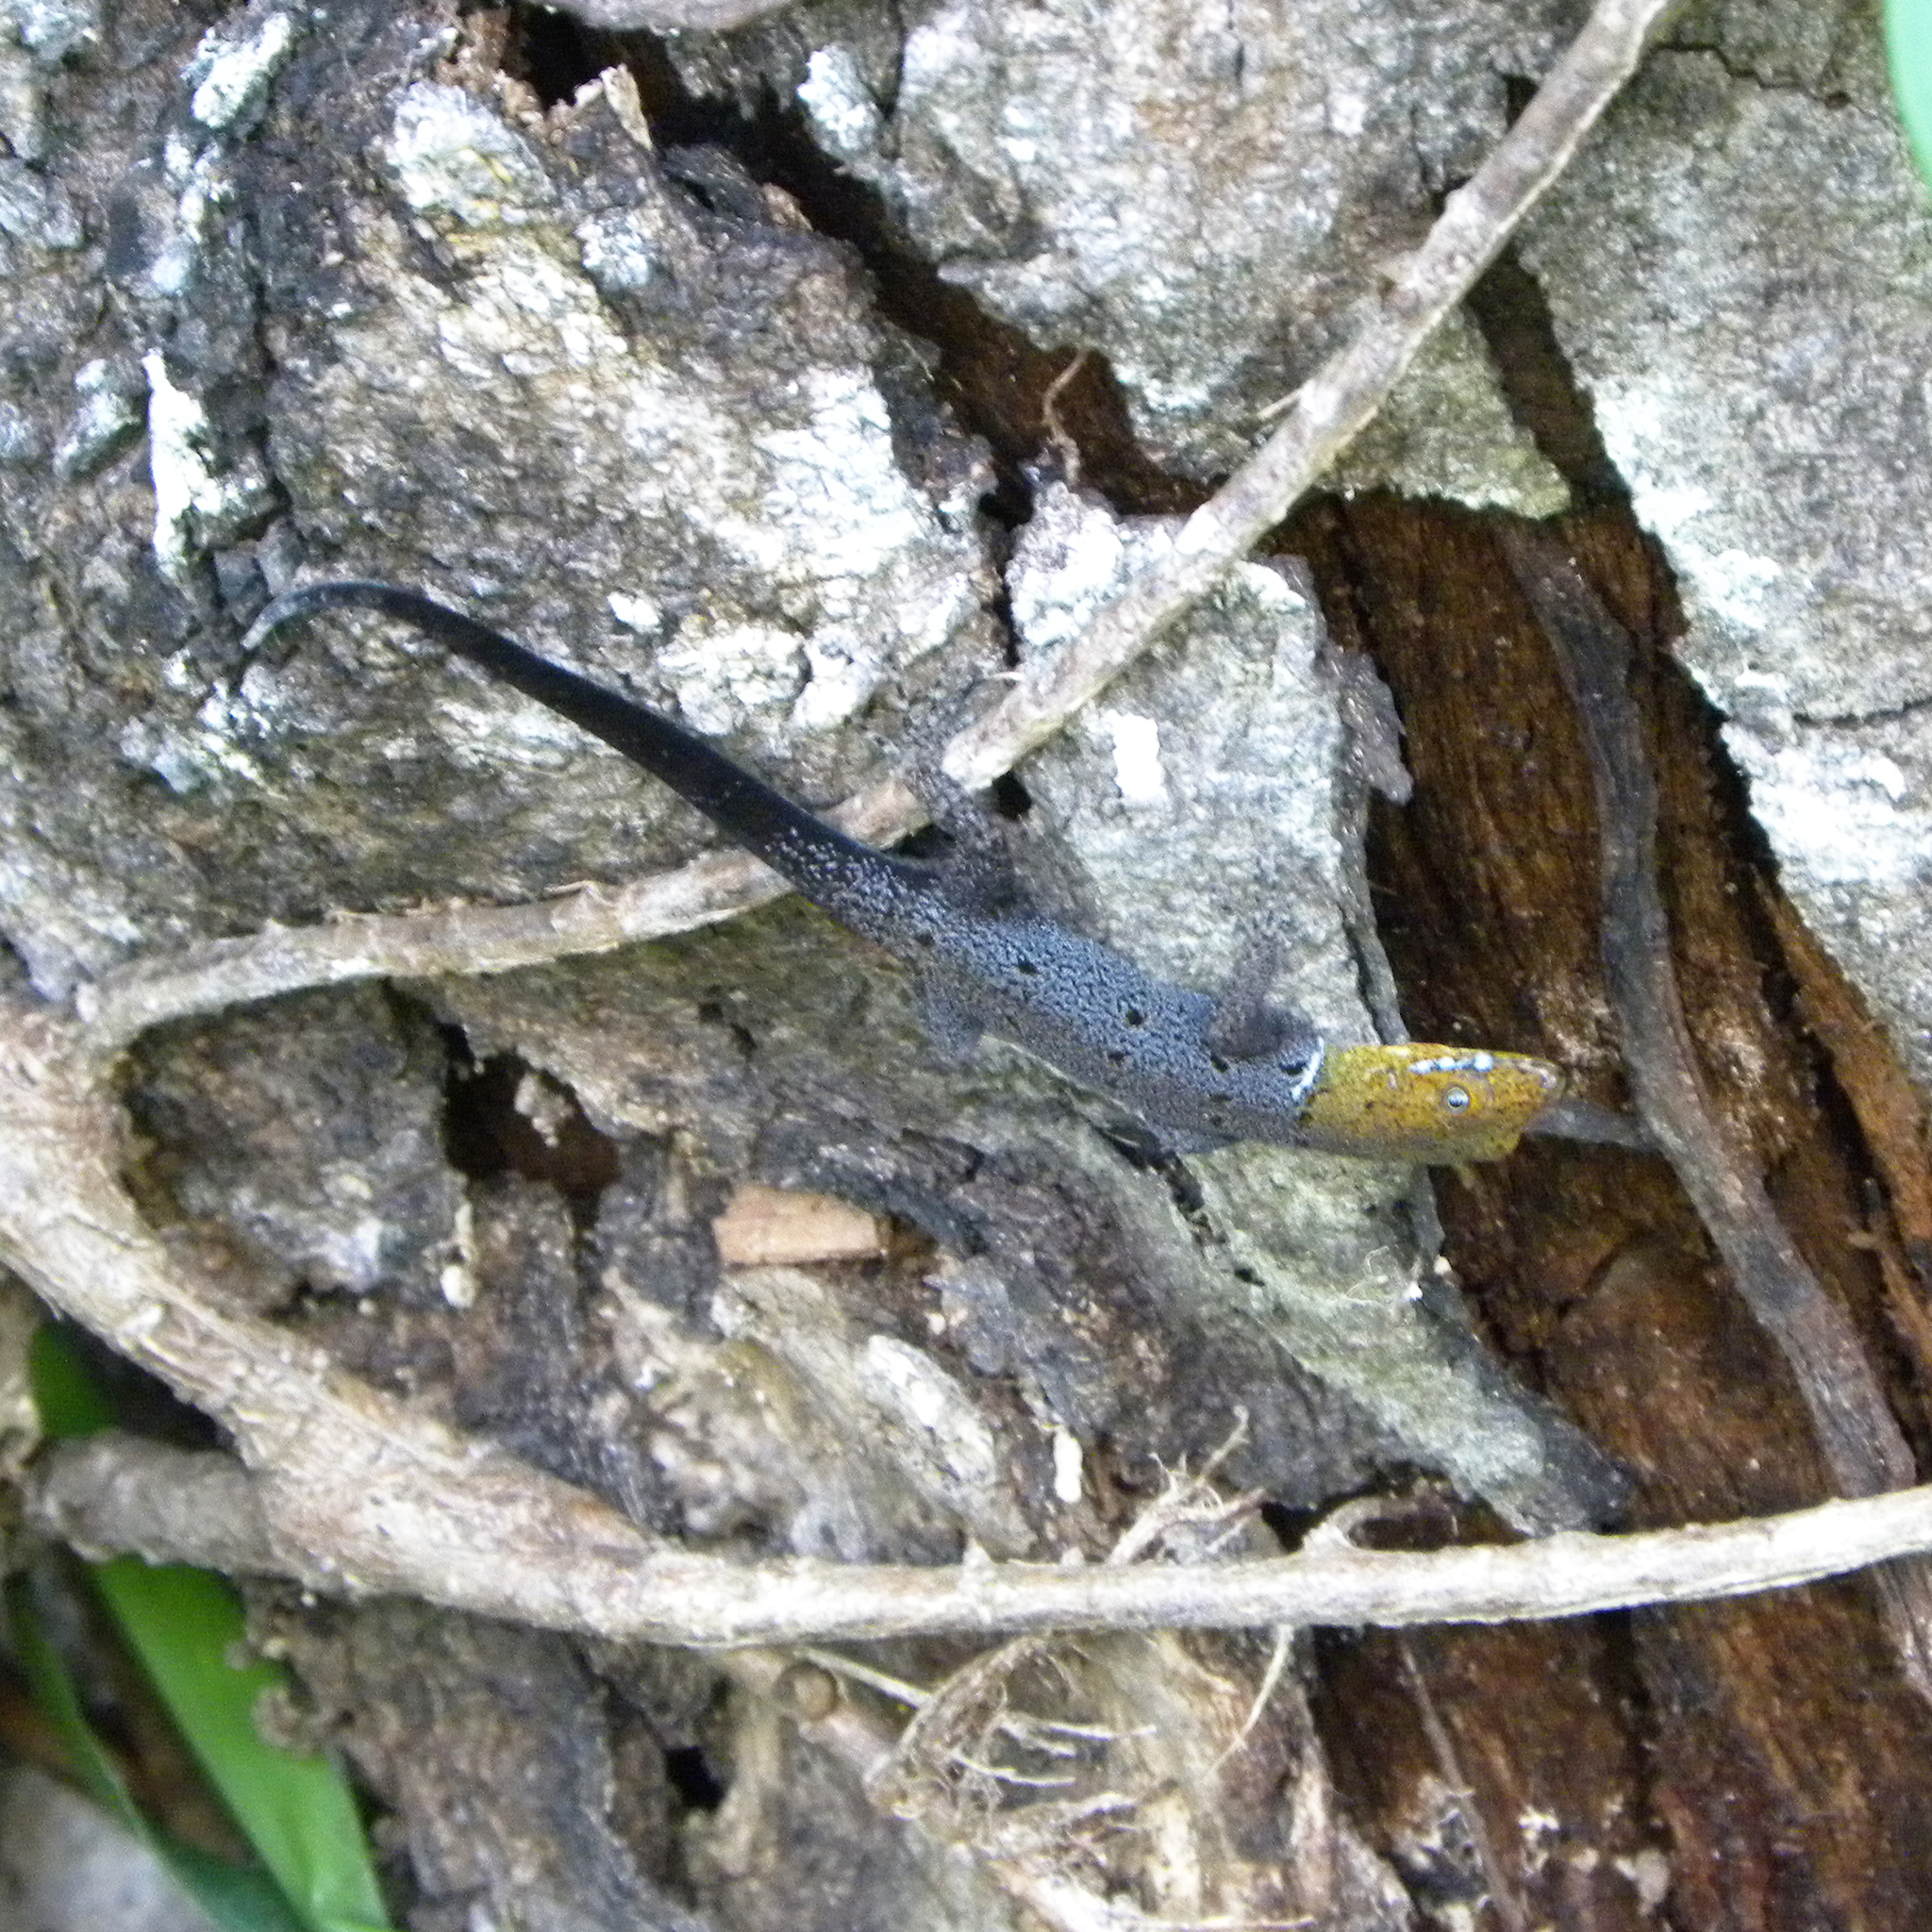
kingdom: Animalia
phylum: Chordata
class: Squamata
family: Sphaerodactylidae
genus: Gonatodes
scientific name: Gonatodes albogularis
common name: Yellow-headed gecko
